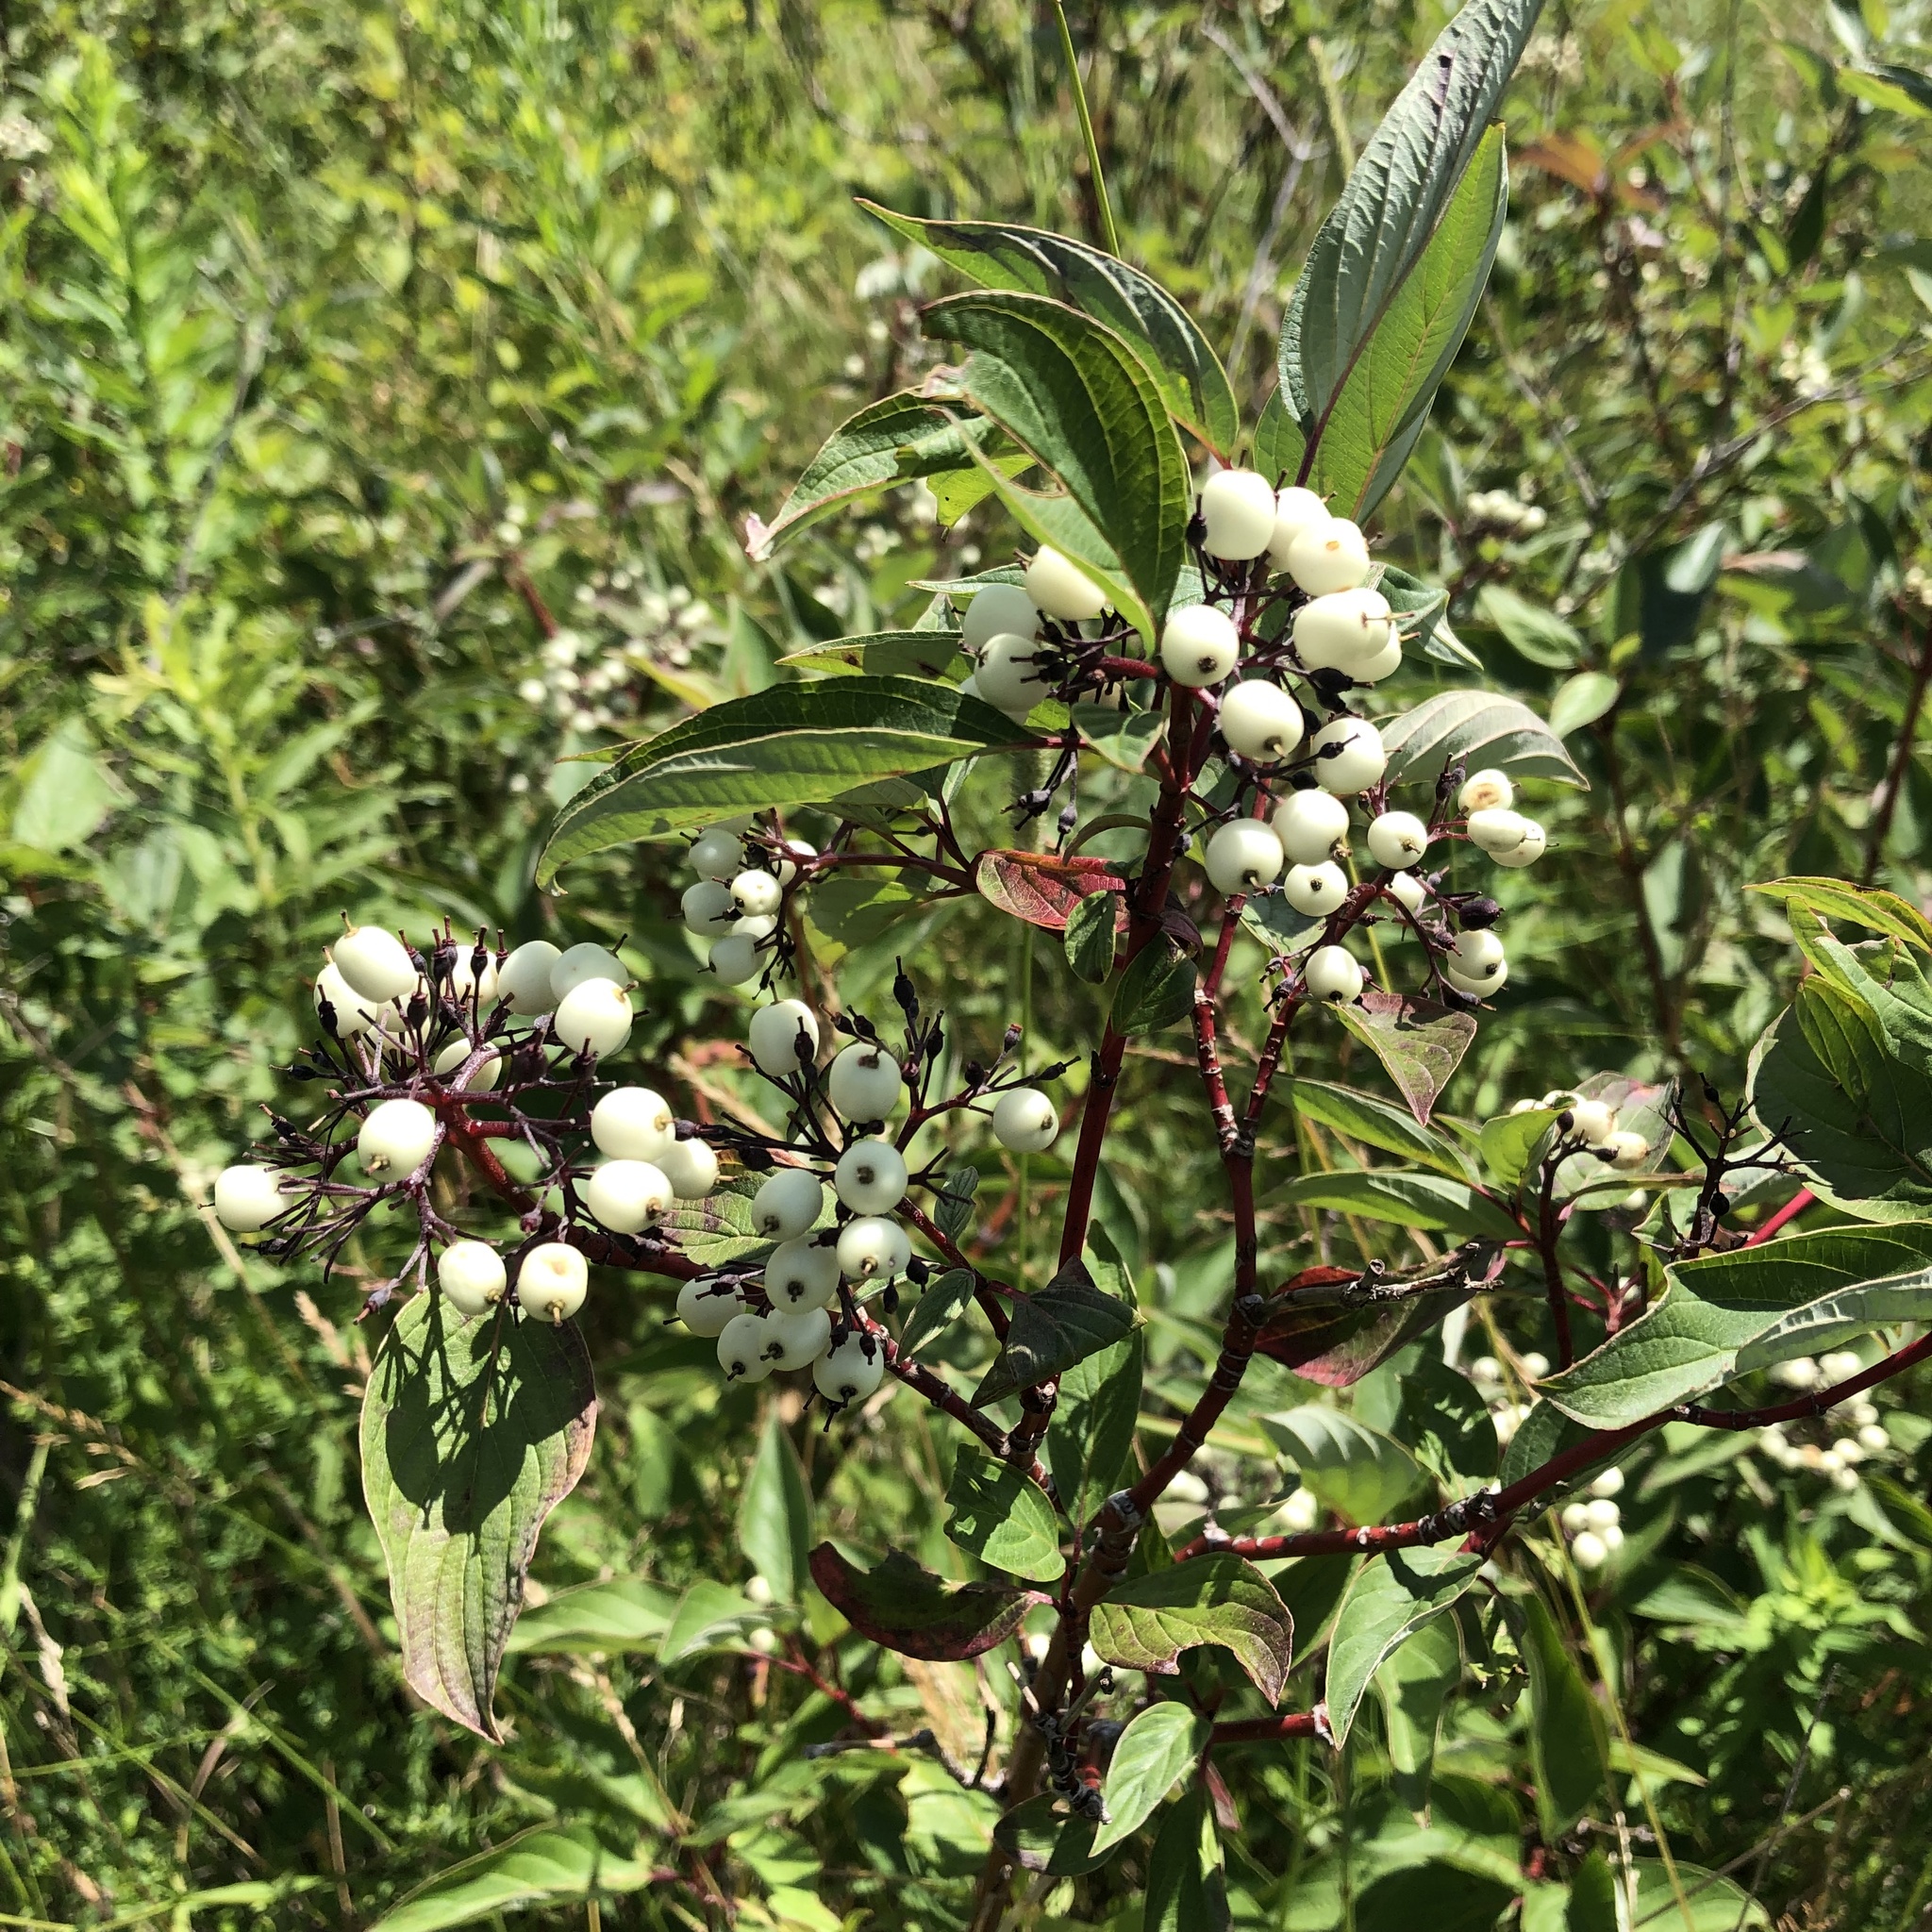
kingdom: Plantae
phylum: Tracheophyta
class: Magnoliopsida
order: Cornales
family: Cornaceae
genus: Cornus
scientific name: Cornus sericea
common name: Red-osier dogwood
